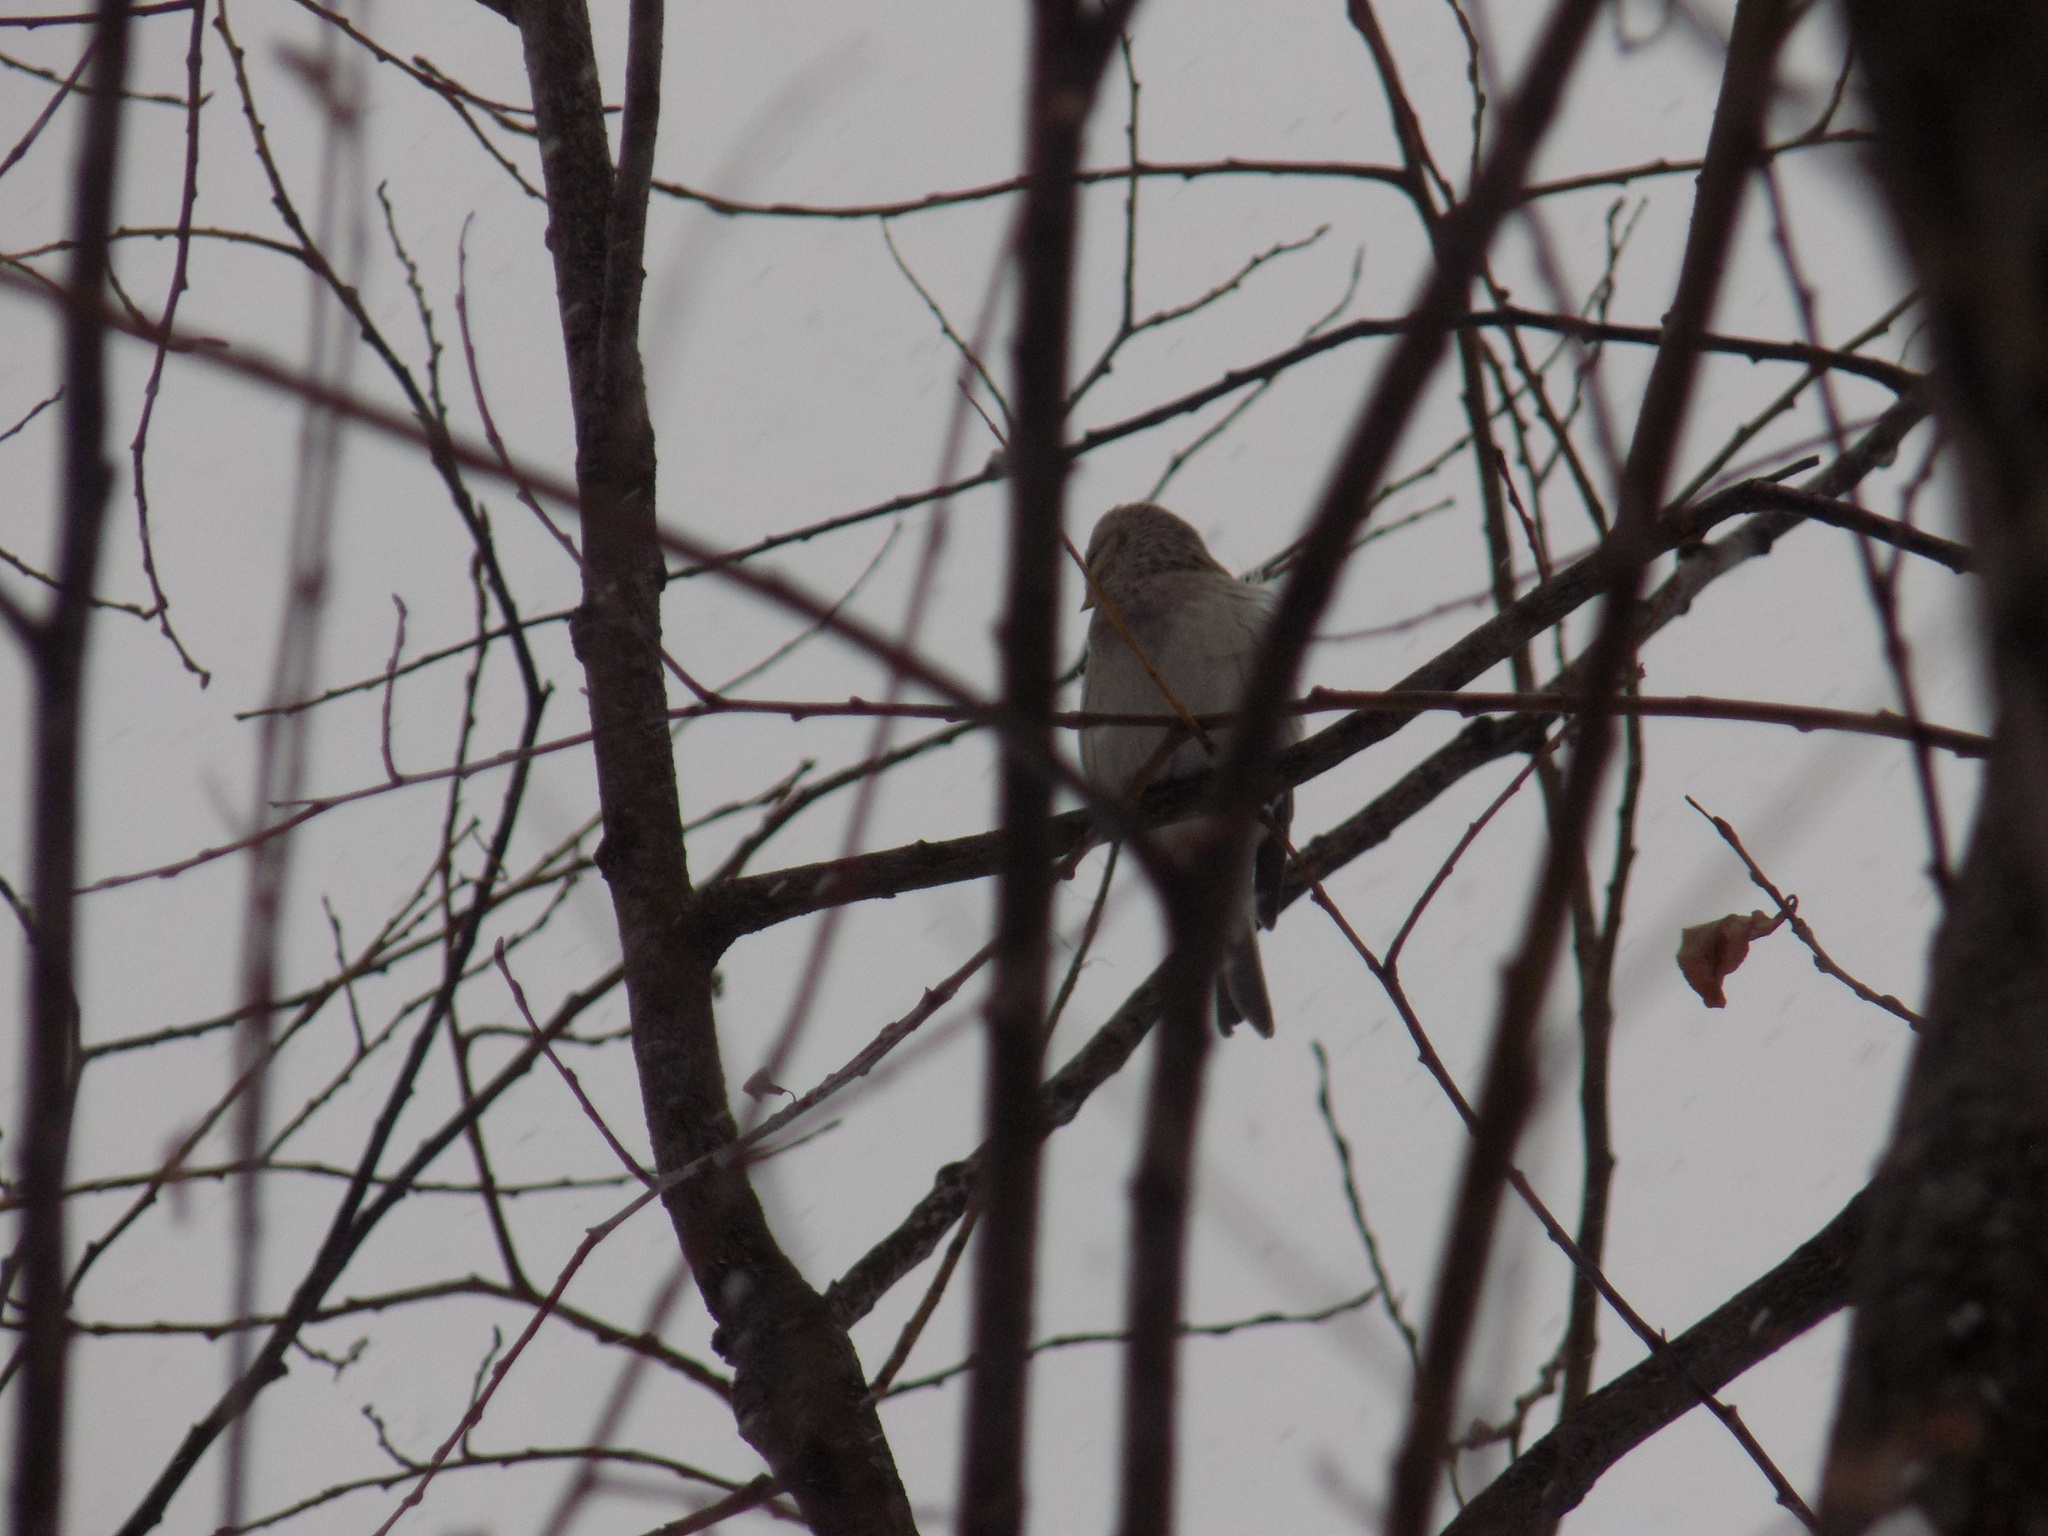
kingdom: Animalia
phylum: Chordata
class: Aves
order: Passeriformes
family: Fringillidae
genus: Acanthis
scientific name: Acanthis hornemanni
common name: Arctic redpoll
